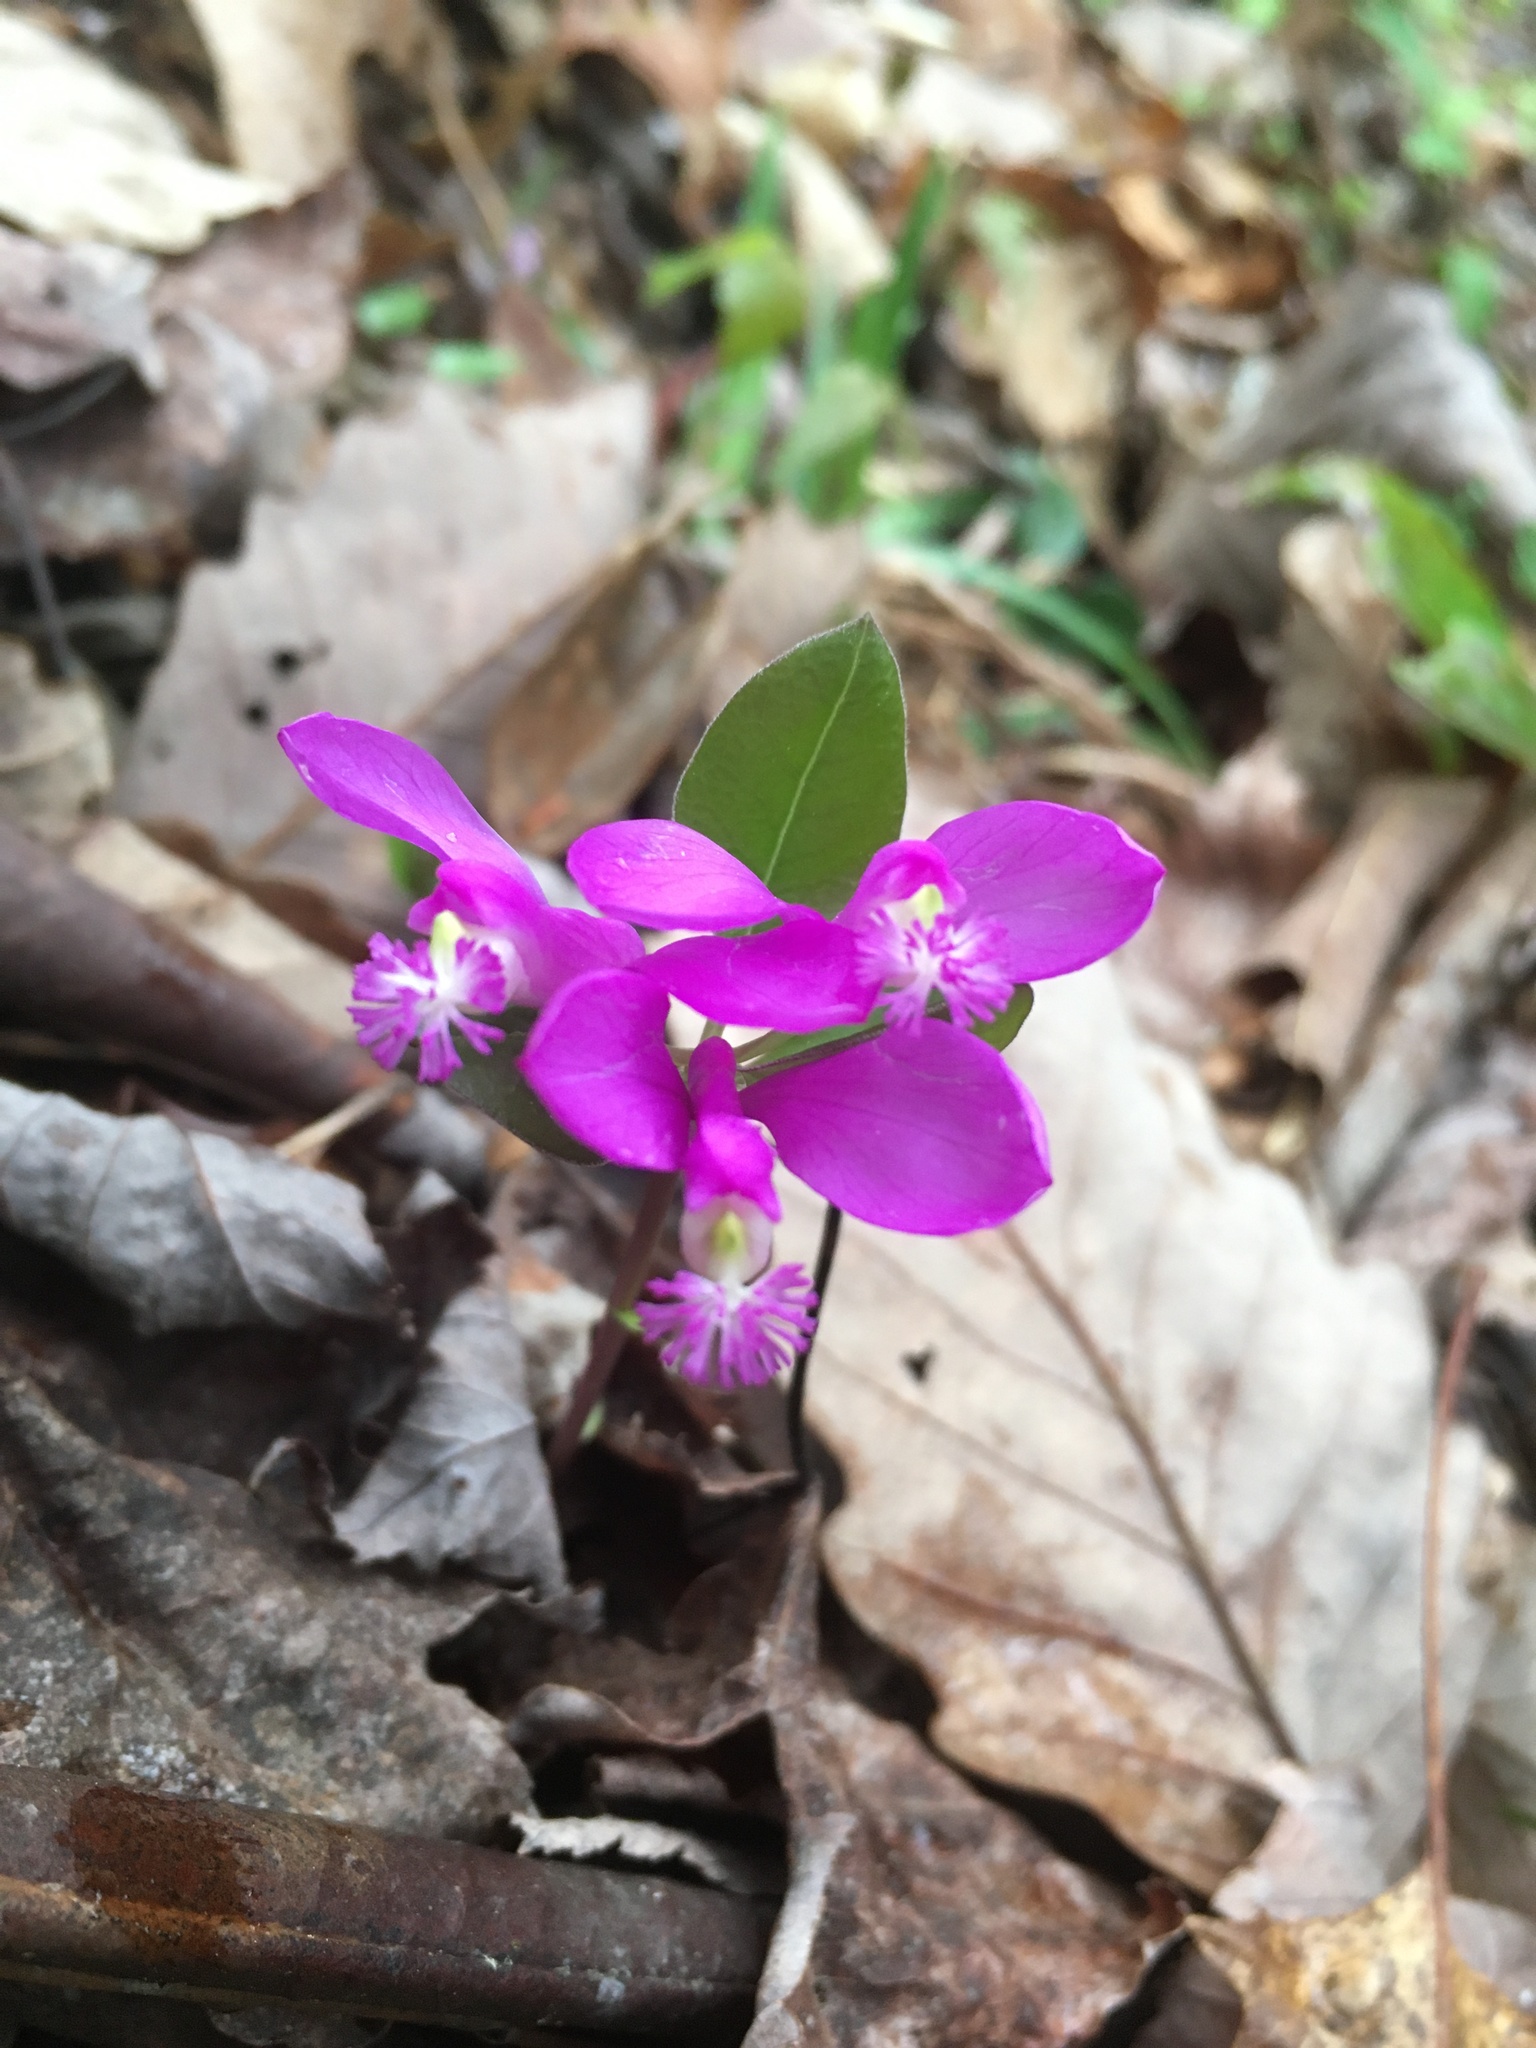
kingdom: Plantae
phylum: Tracheophyta
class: Magnoliopsida
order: Fabales
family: Polygalaceae
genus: Polygaloides
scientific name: Polygaloides paucifolia
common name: Bird-on-the-wing
